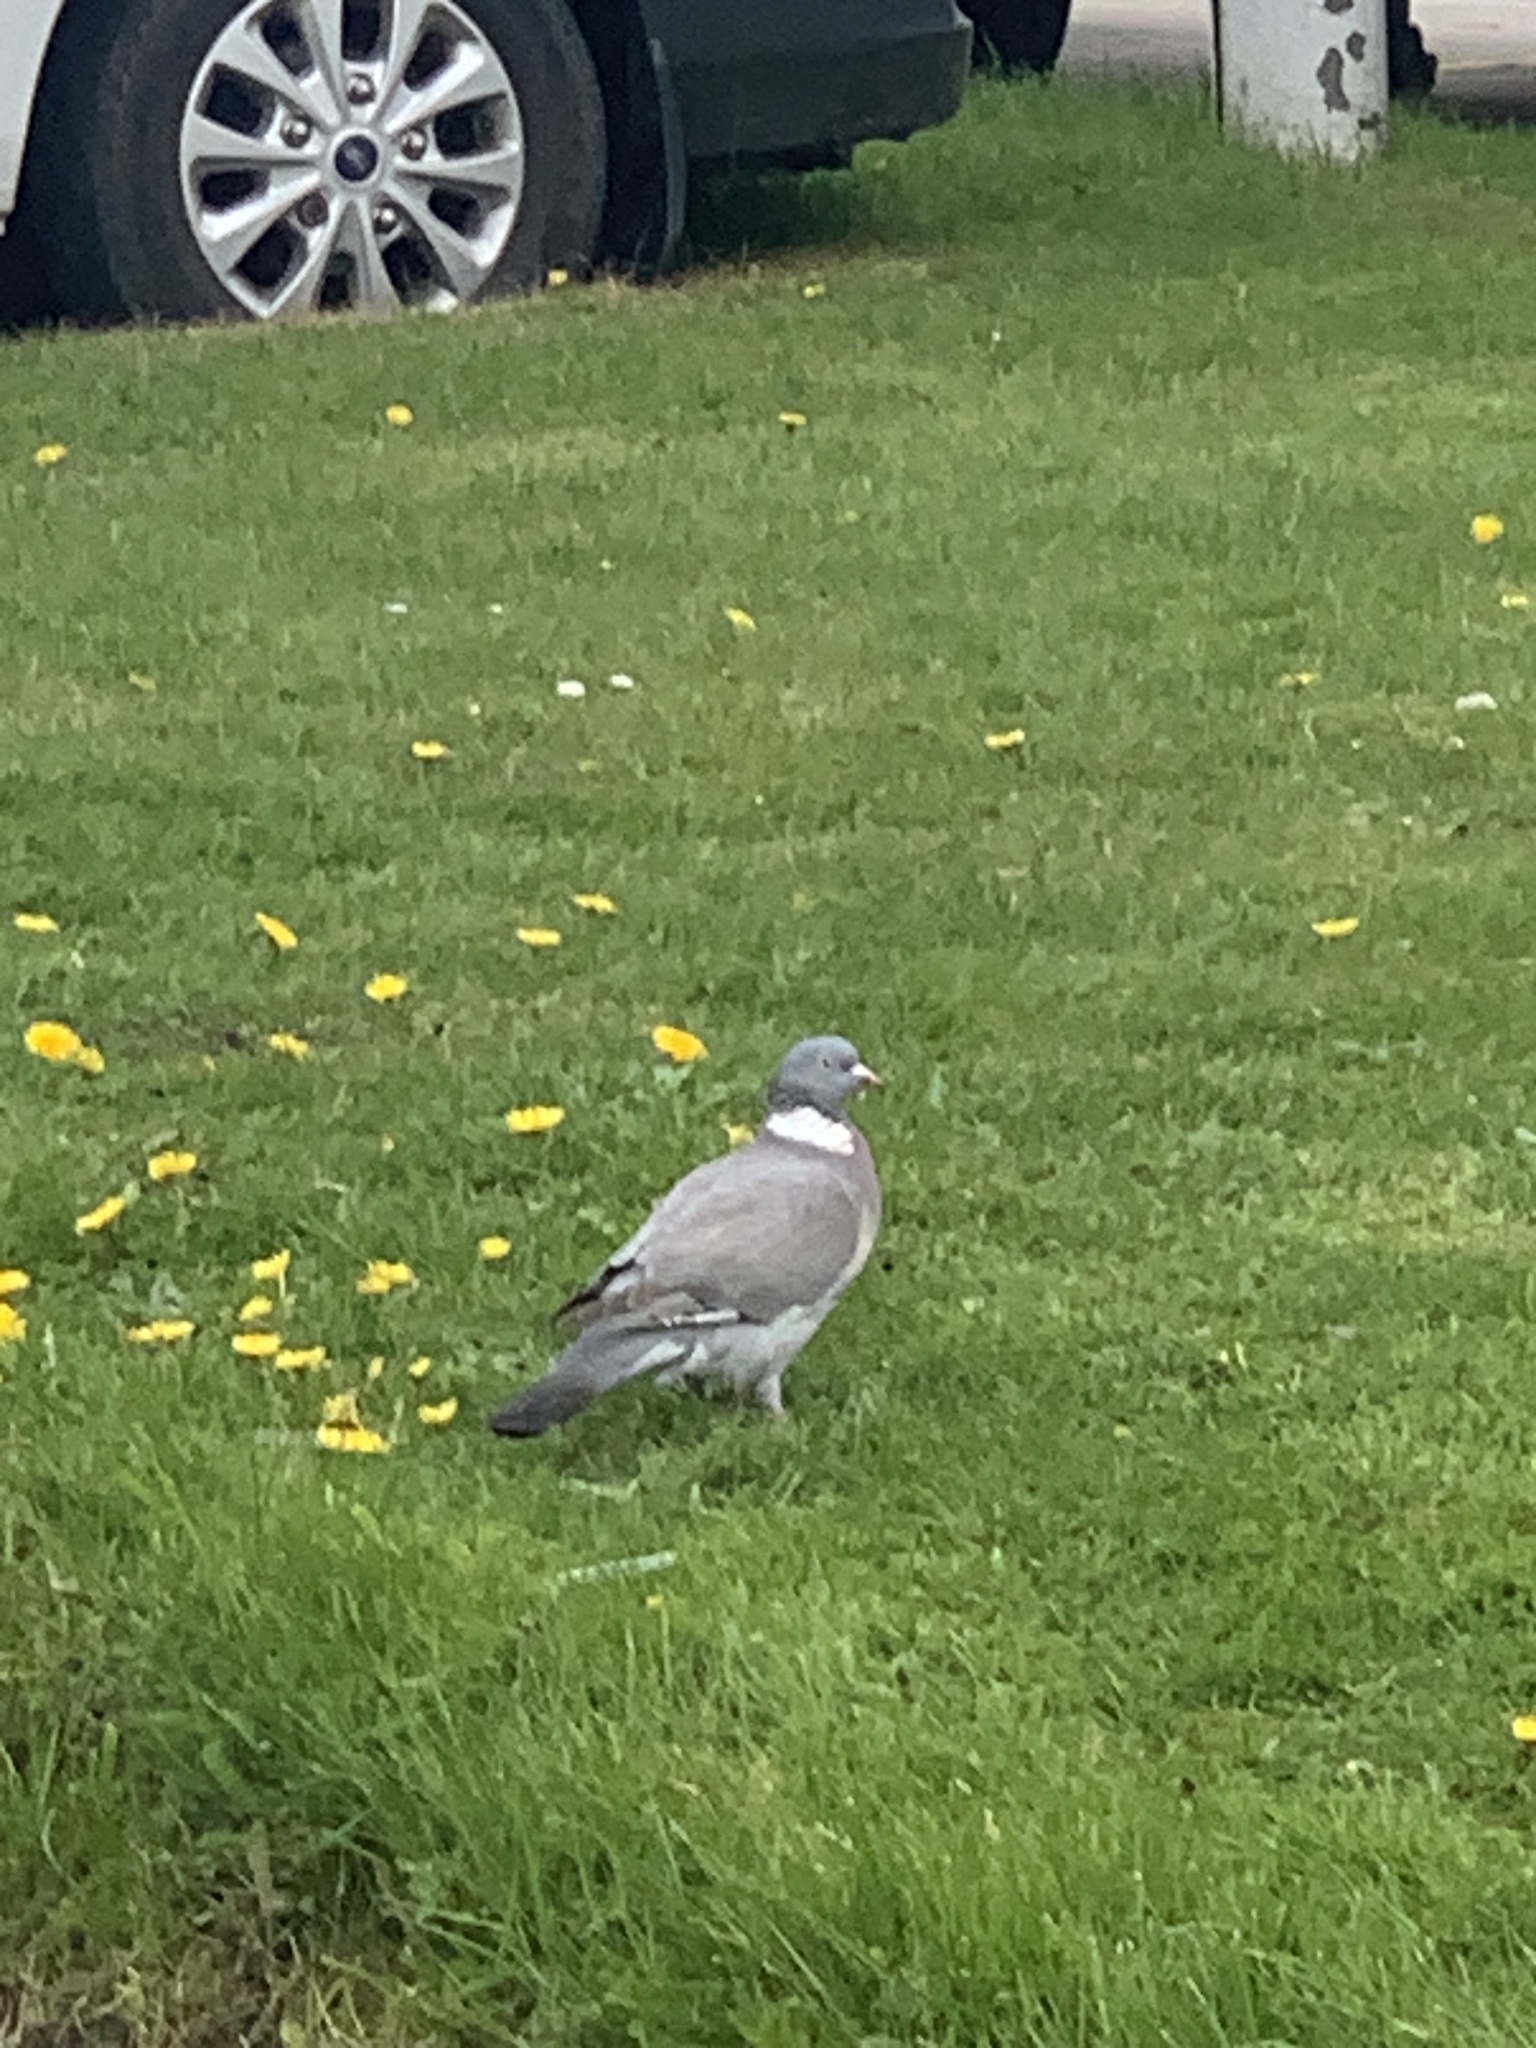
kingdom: Animalia
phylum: Chordata
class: Aves
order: Columbiformes
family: Columbidae
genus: Columba
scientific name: Columba palumbus
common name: Common wood pigeon
